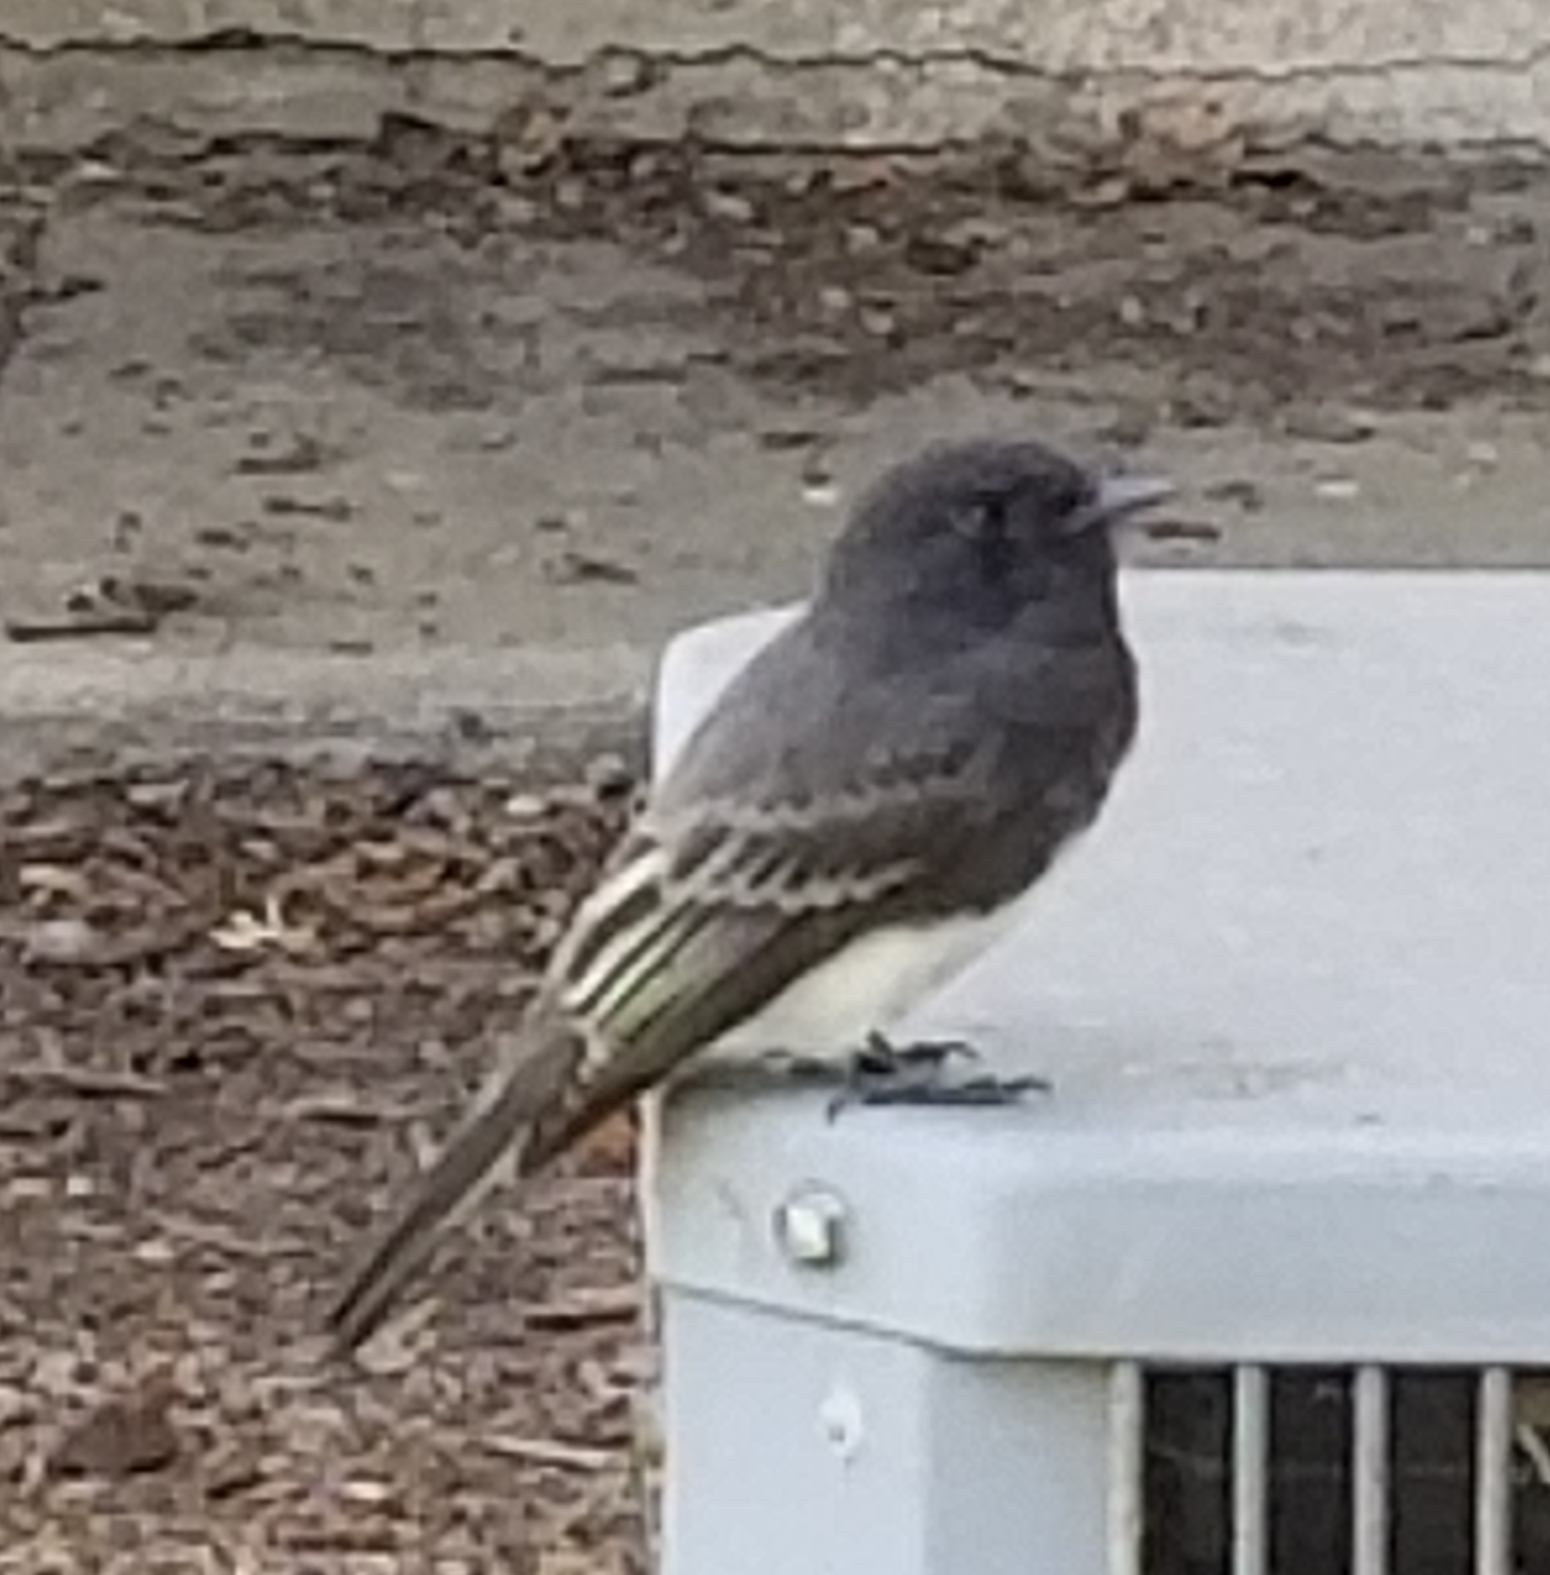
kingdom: Animalia
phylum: Chordata
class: Aves
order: Passeriformes
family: Tyrannidae
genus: Sayornis
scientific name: Sayornis nigricans
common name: Black phoebe
